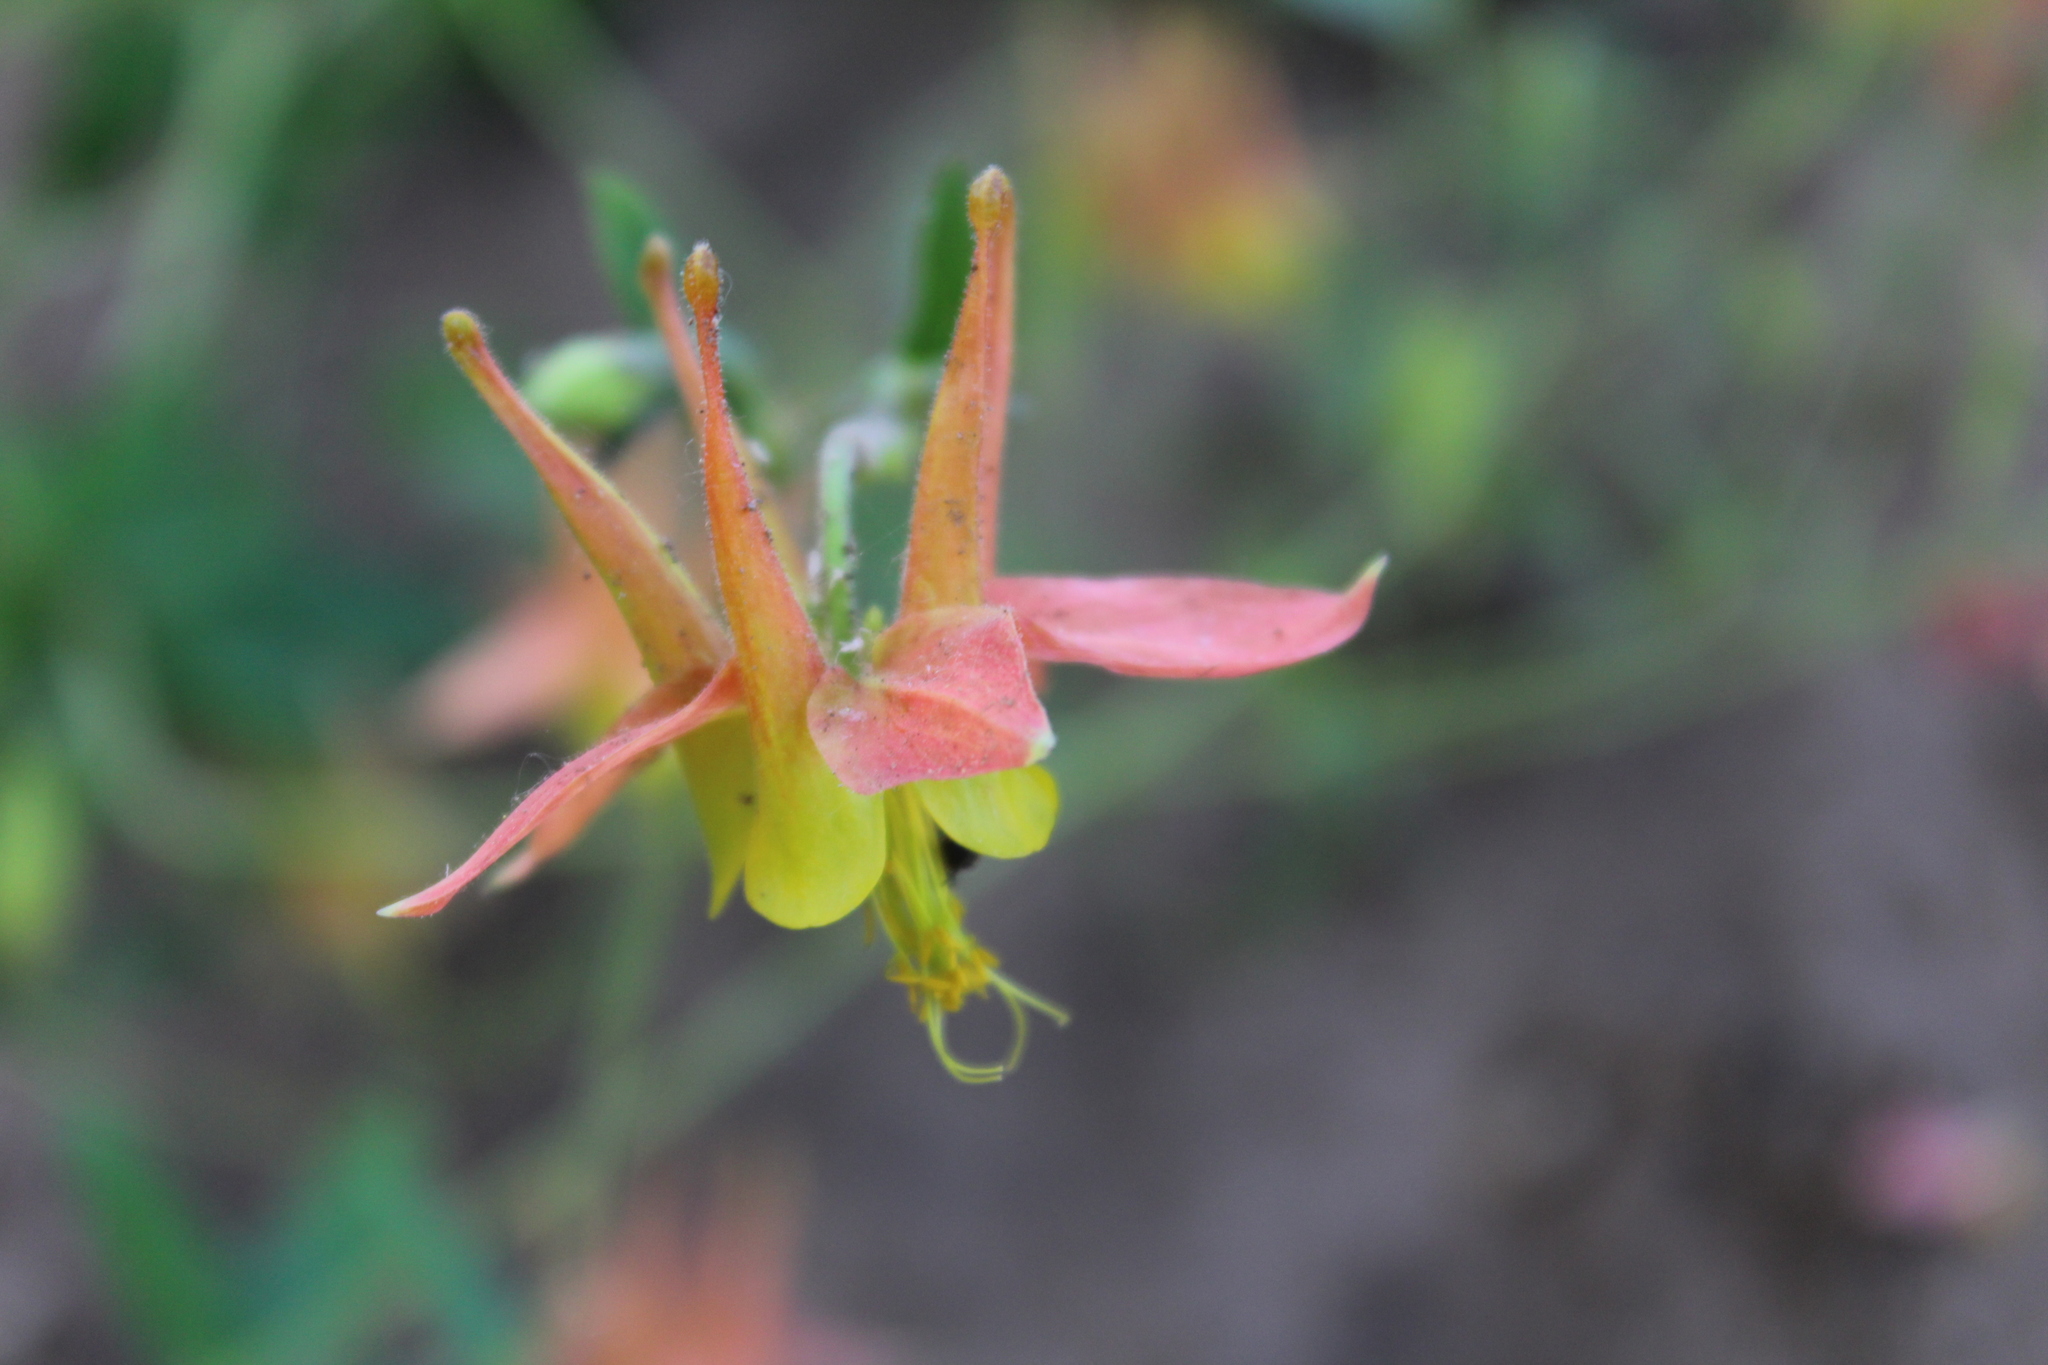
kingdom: Plantae
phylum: Tracheophyta
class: Magnoliopsida
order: Ranunculales
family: Ranunculaceae
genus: Aquilegia
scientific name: Aquilegia formosa
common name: Sitka columbine
